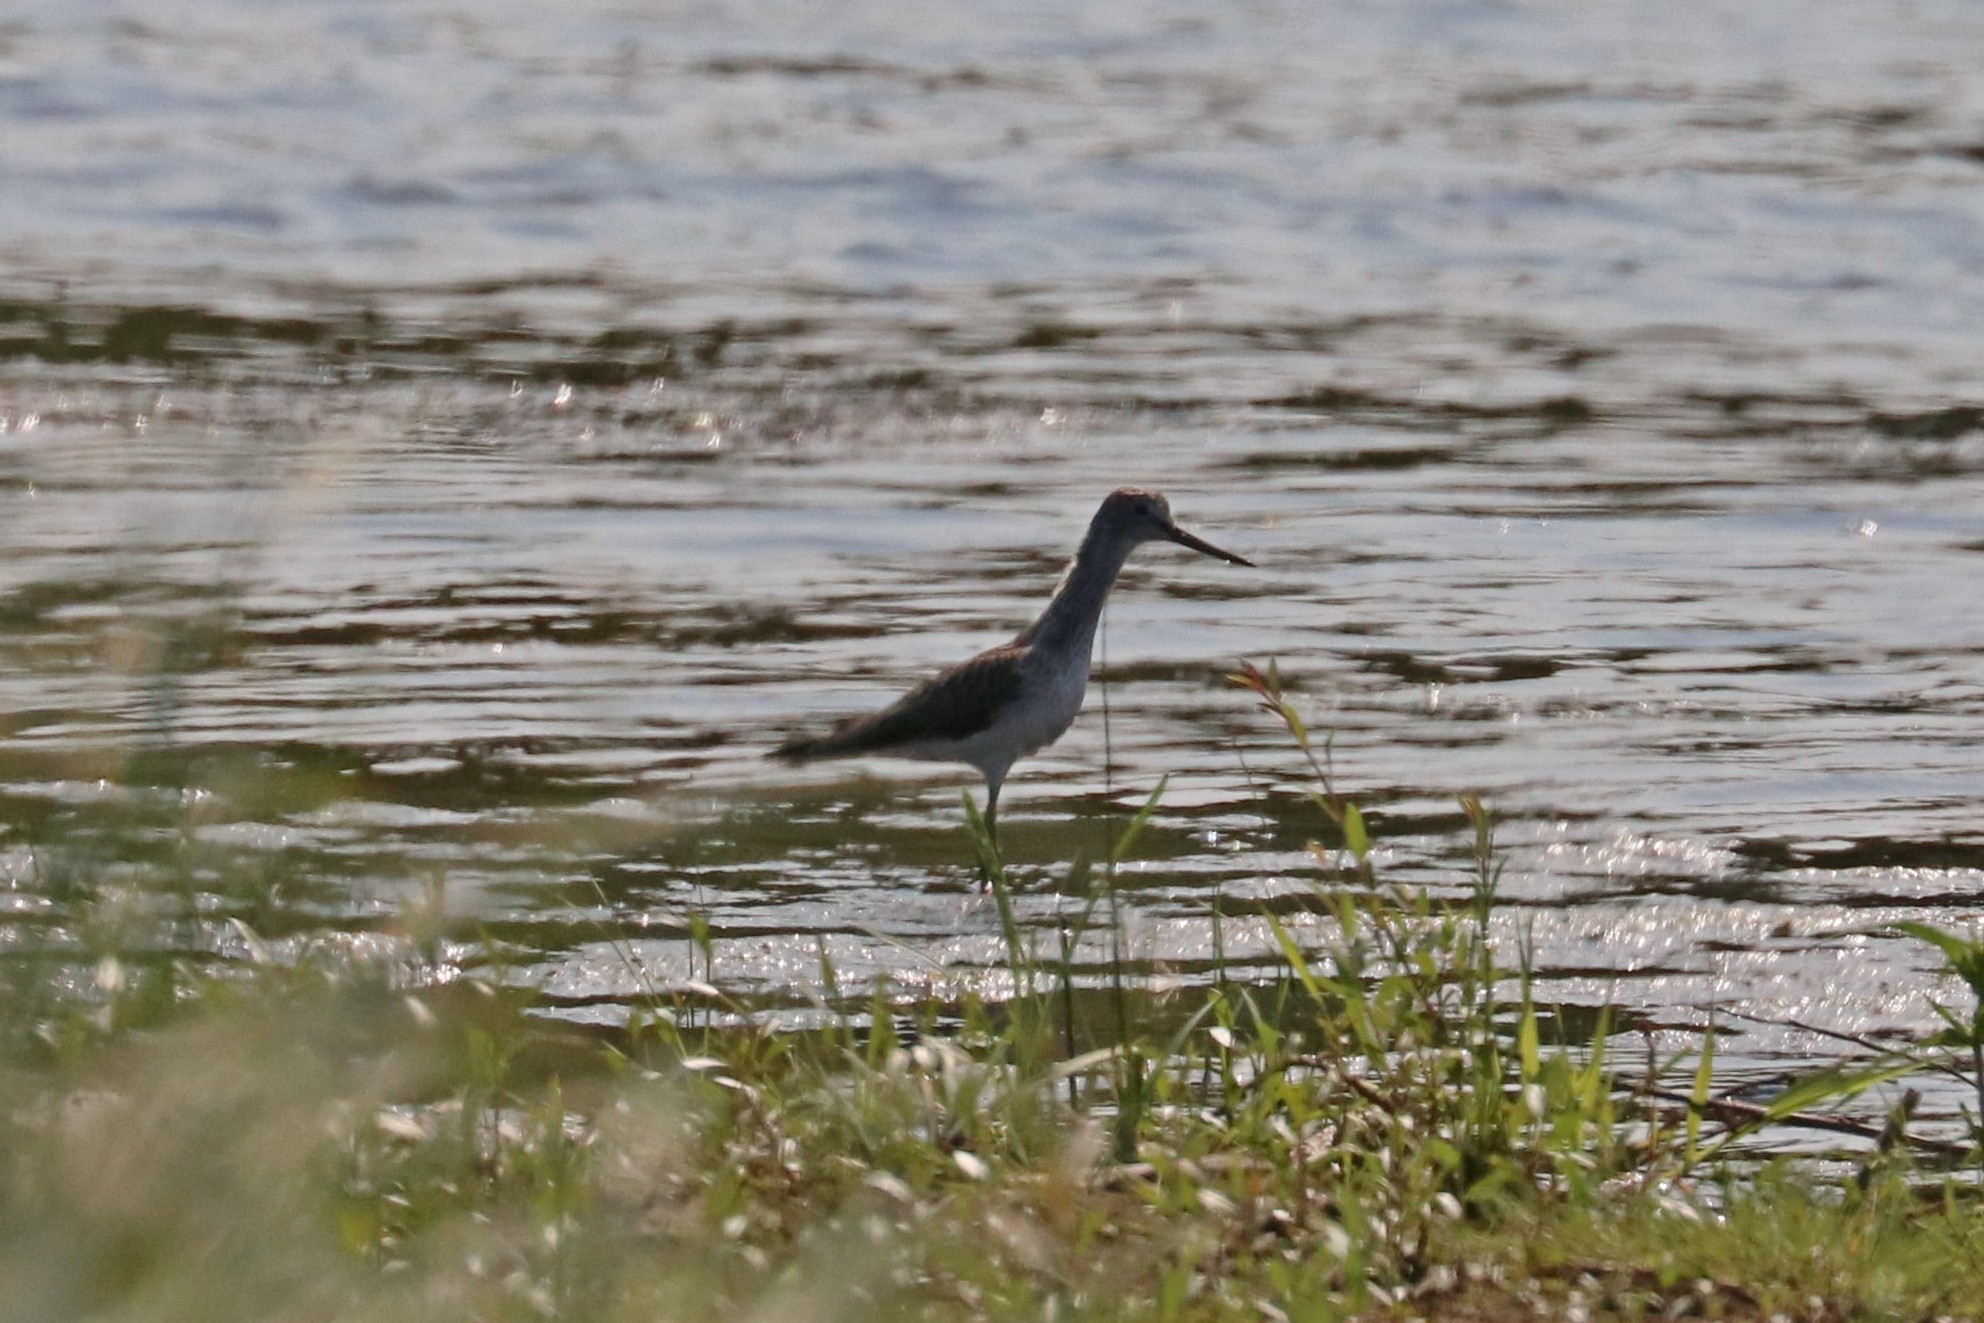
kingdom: Animalia
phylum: Chordata
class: Aves
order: Charadriiformes
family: Scolopacidae
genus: Tringa
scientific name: Tringa nebularia
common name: Common greenshank
